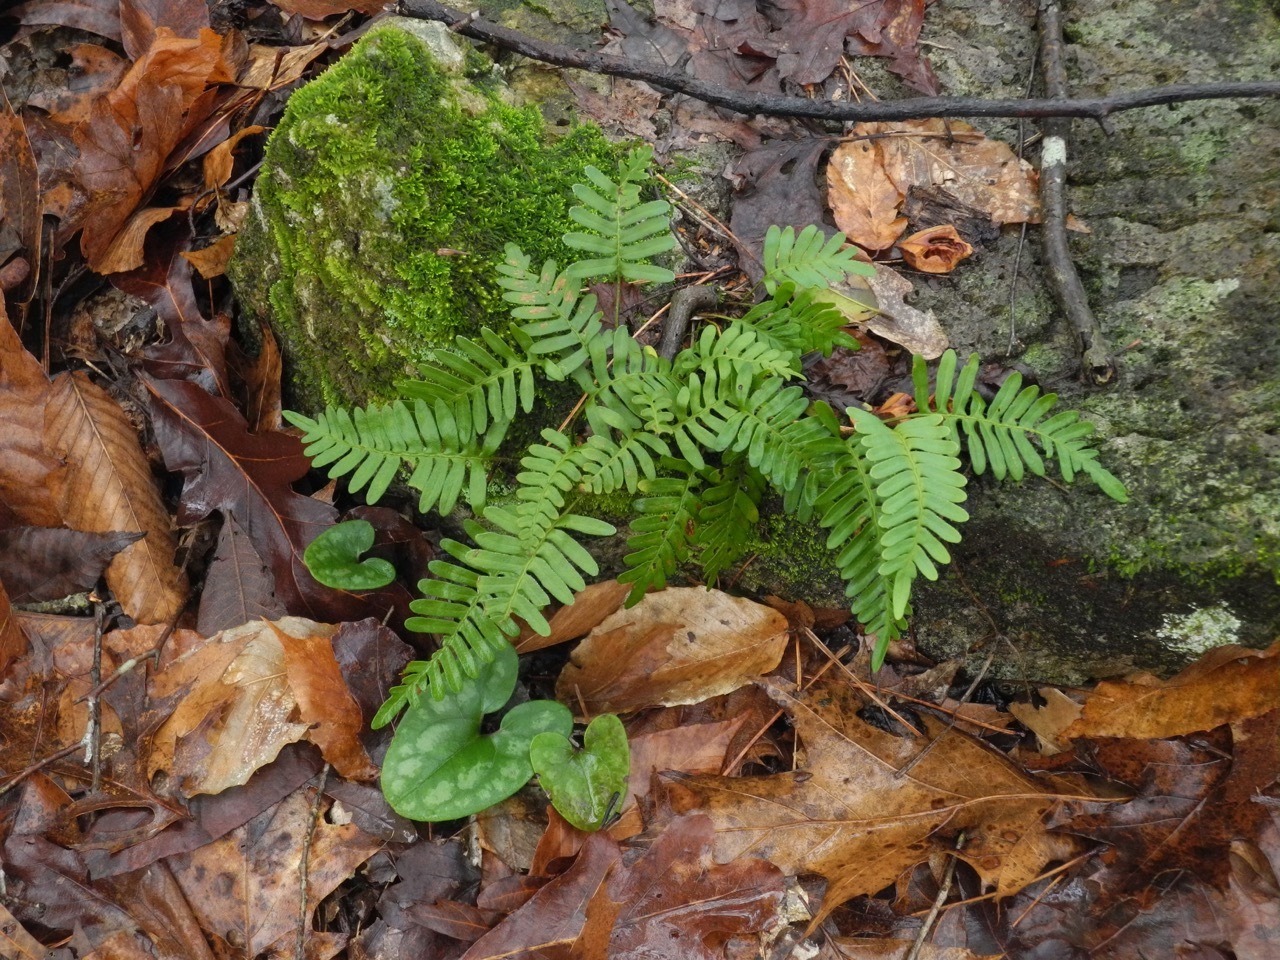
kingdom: Plantae
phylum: Tracheophyta
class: Polypodiopsida
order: Polypodiales
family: Polypodiaceae
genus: Pleopeltis
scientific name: Pleopeltis michauxiana
